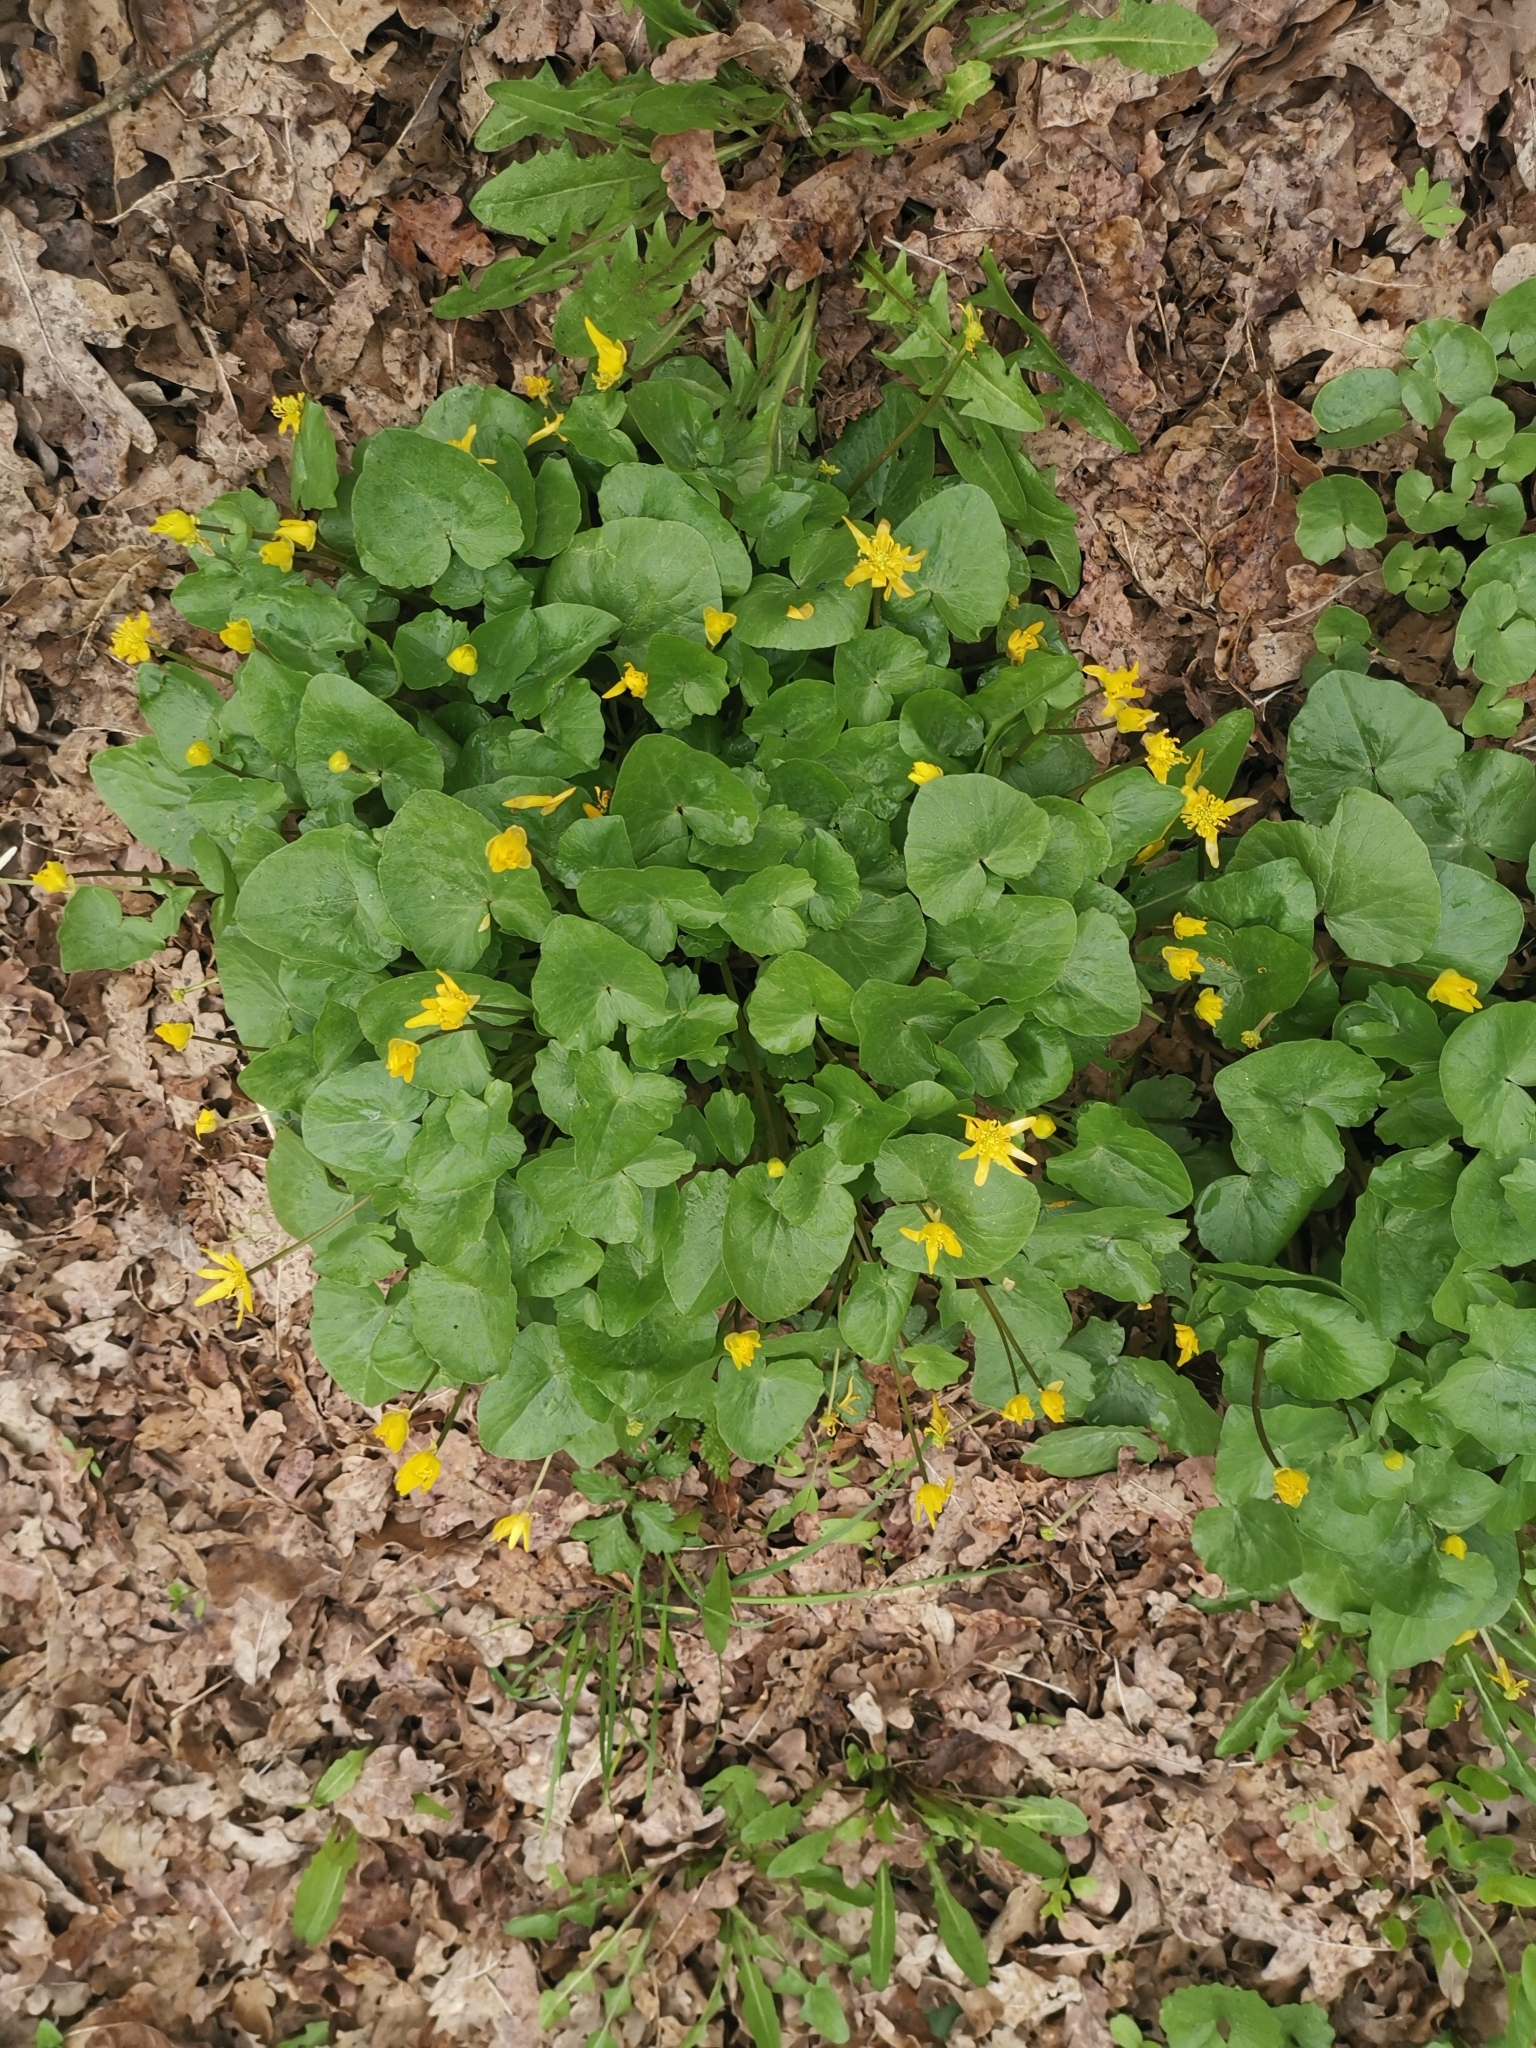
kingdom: Plantae
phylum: Tracheophyta
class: Magnoliopsida
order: Ranunculales
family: Ranunculaceae
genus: Ficaria
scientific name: Ficaria verna
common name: Lesser celandine
